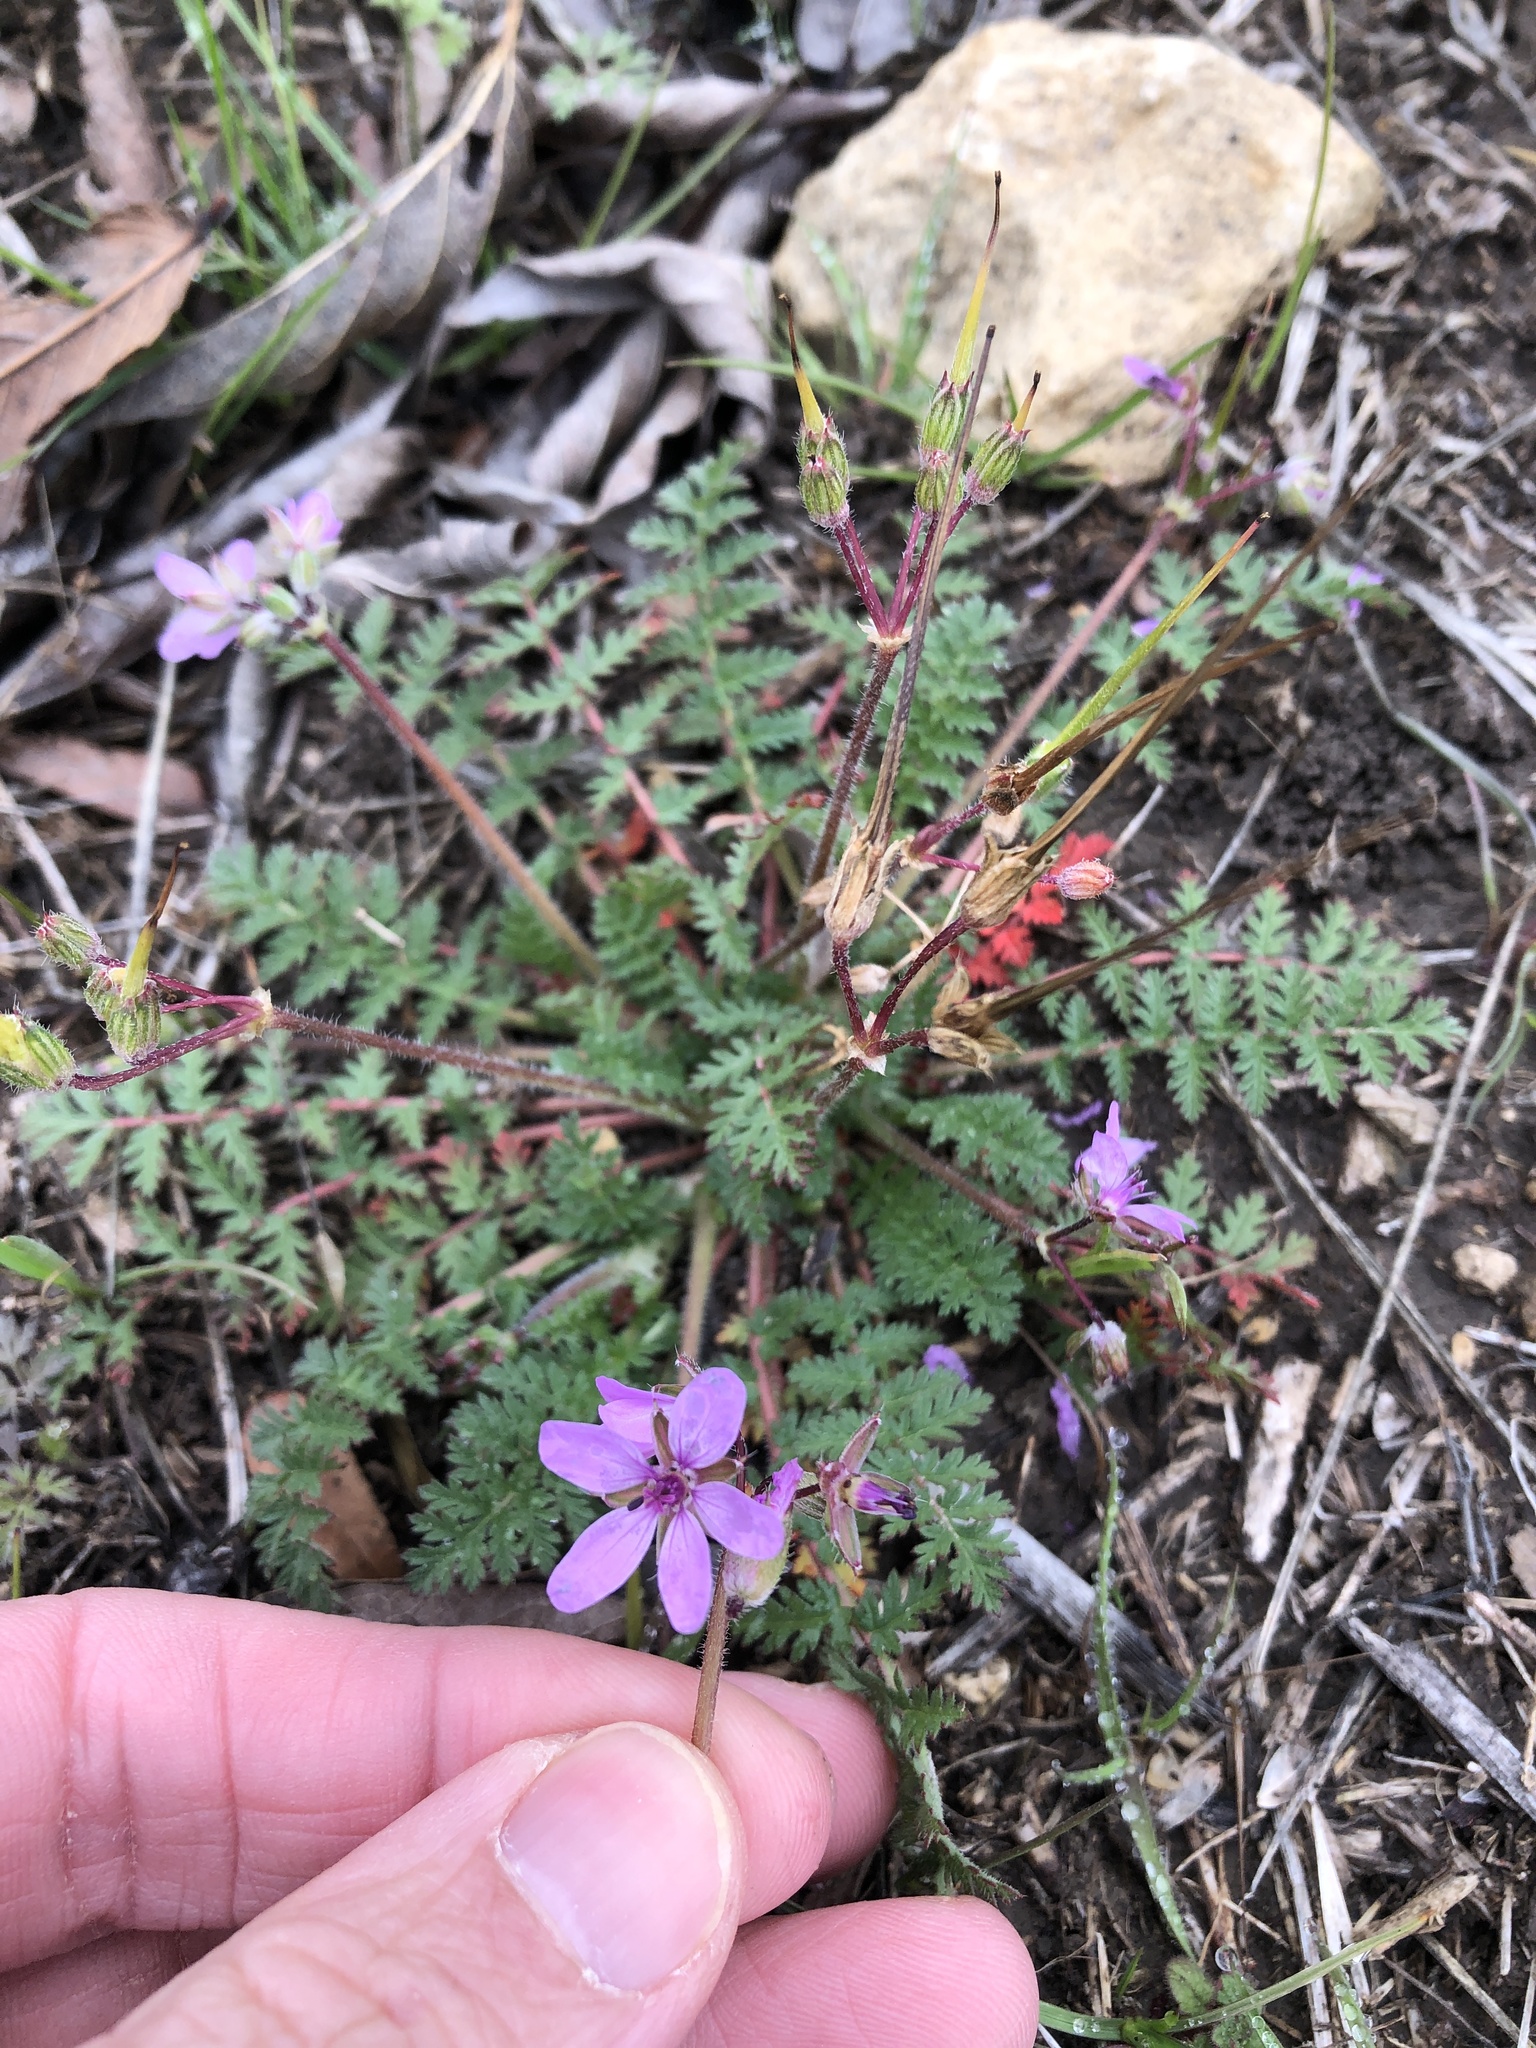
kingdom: Plantae
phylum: Tracheophyta
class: Magnoliopsida
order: Geraniales
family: Geraniaceae
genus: Erodium
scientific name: Erodium cicutarium
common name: Common stork's-bill
